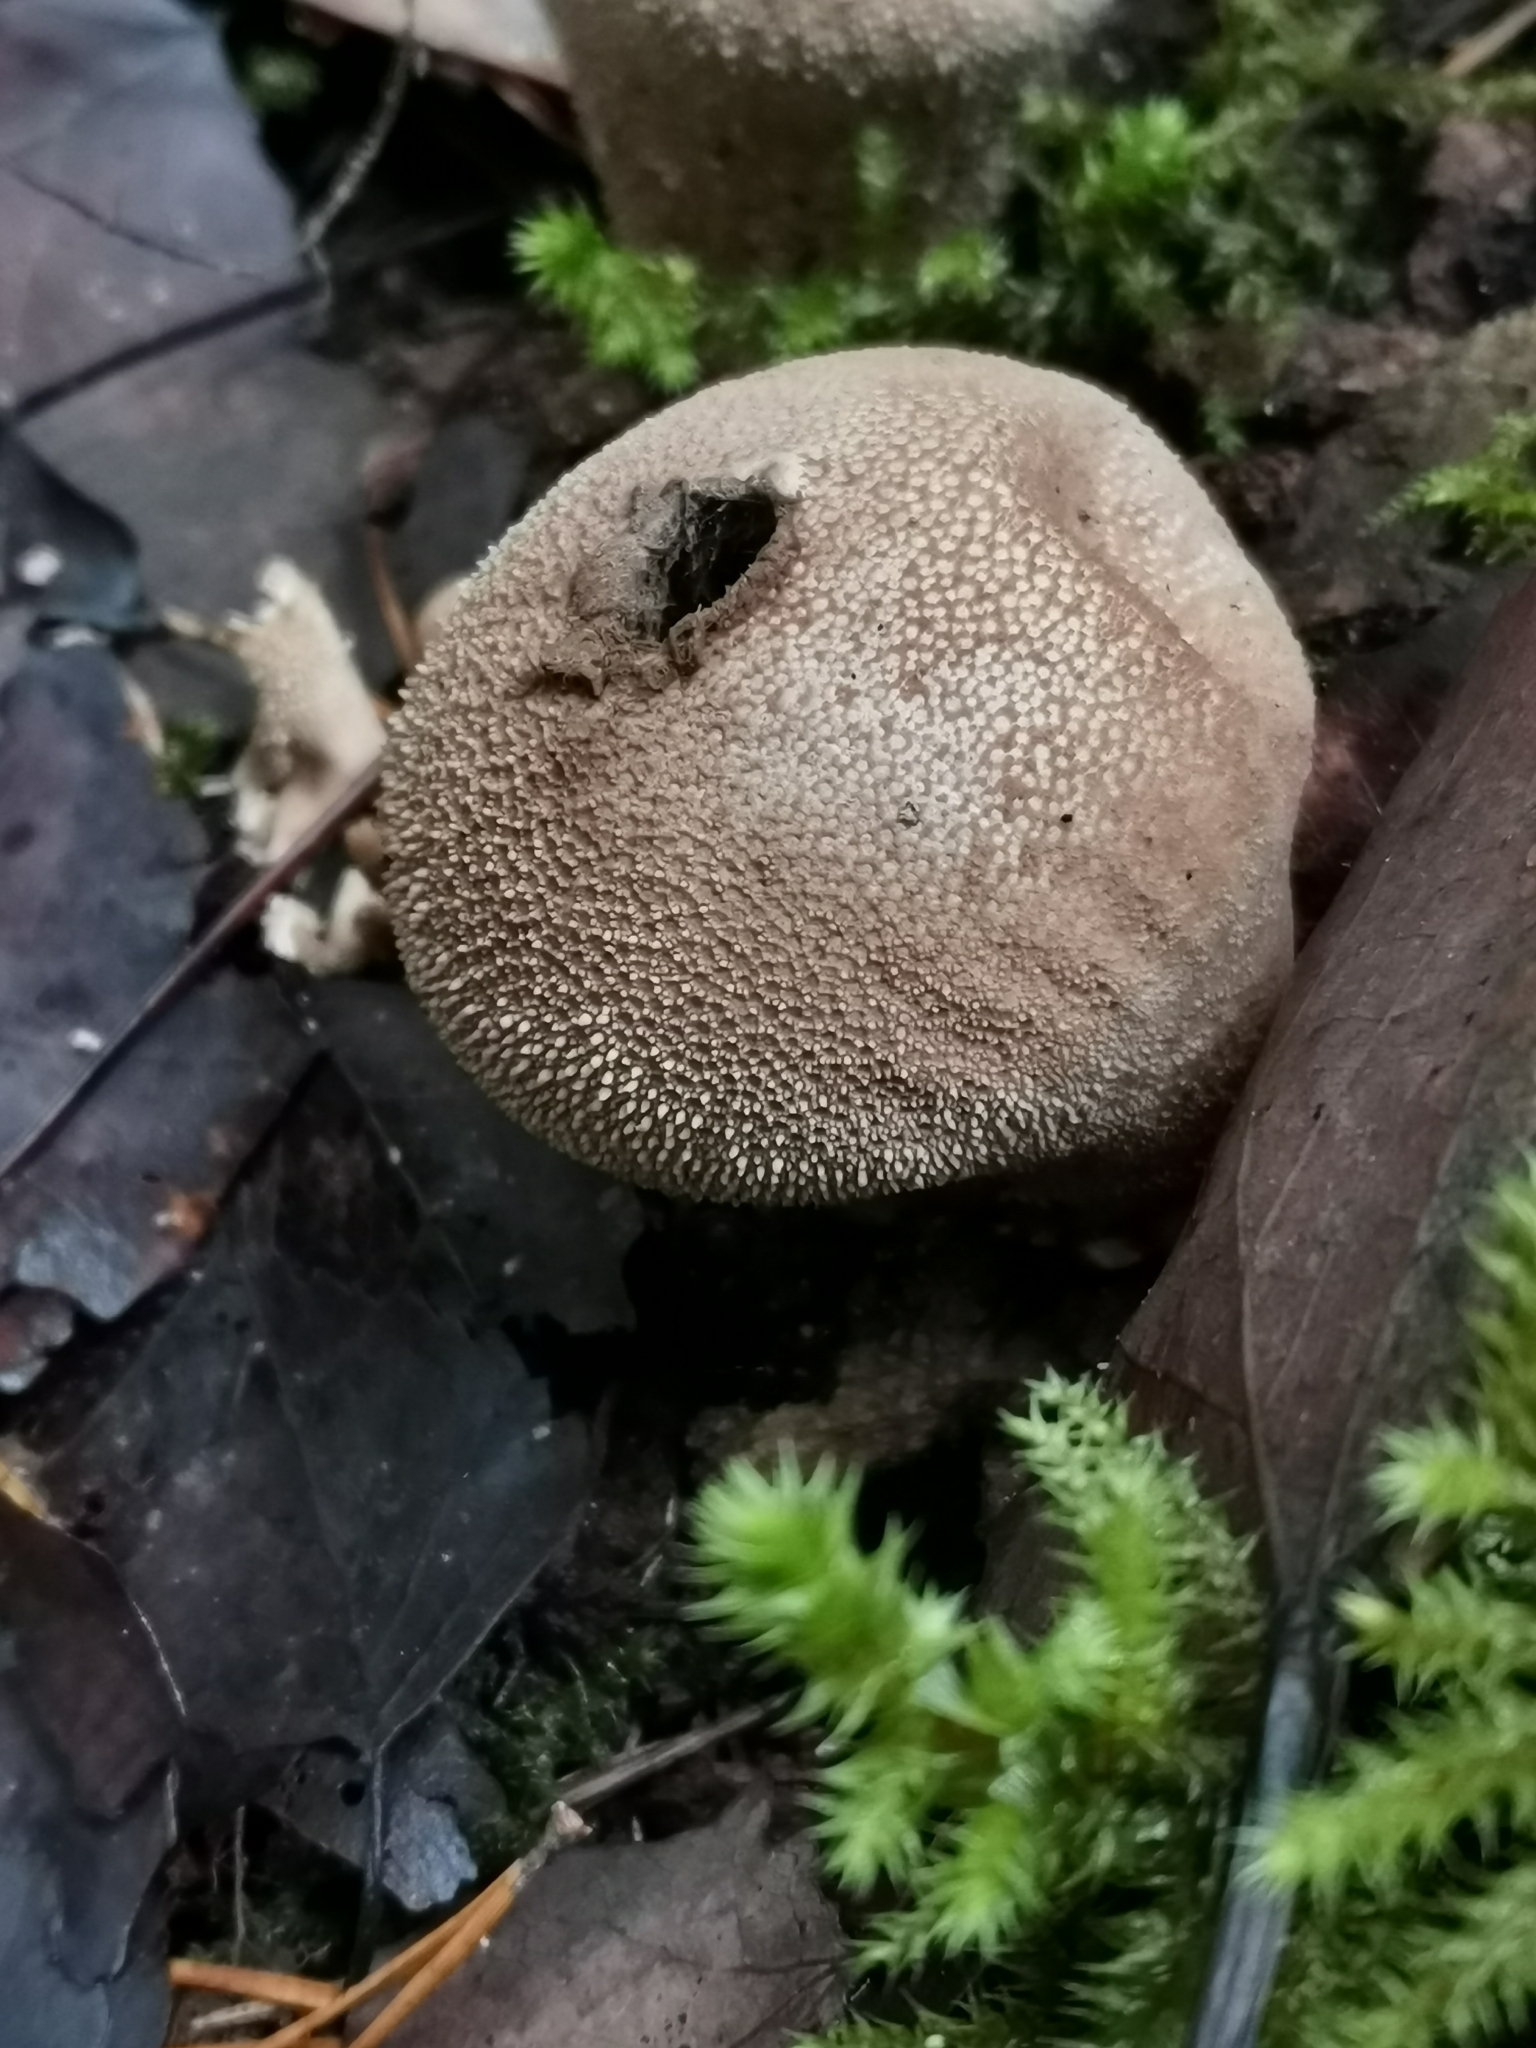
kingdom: Fungi
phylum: Basidiomycota
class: Agaricomycetes
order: Agaricales
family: Lycoperdaceae
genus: Lycoperdon
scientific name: Lycoperdon perlatum
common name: Common puffball
